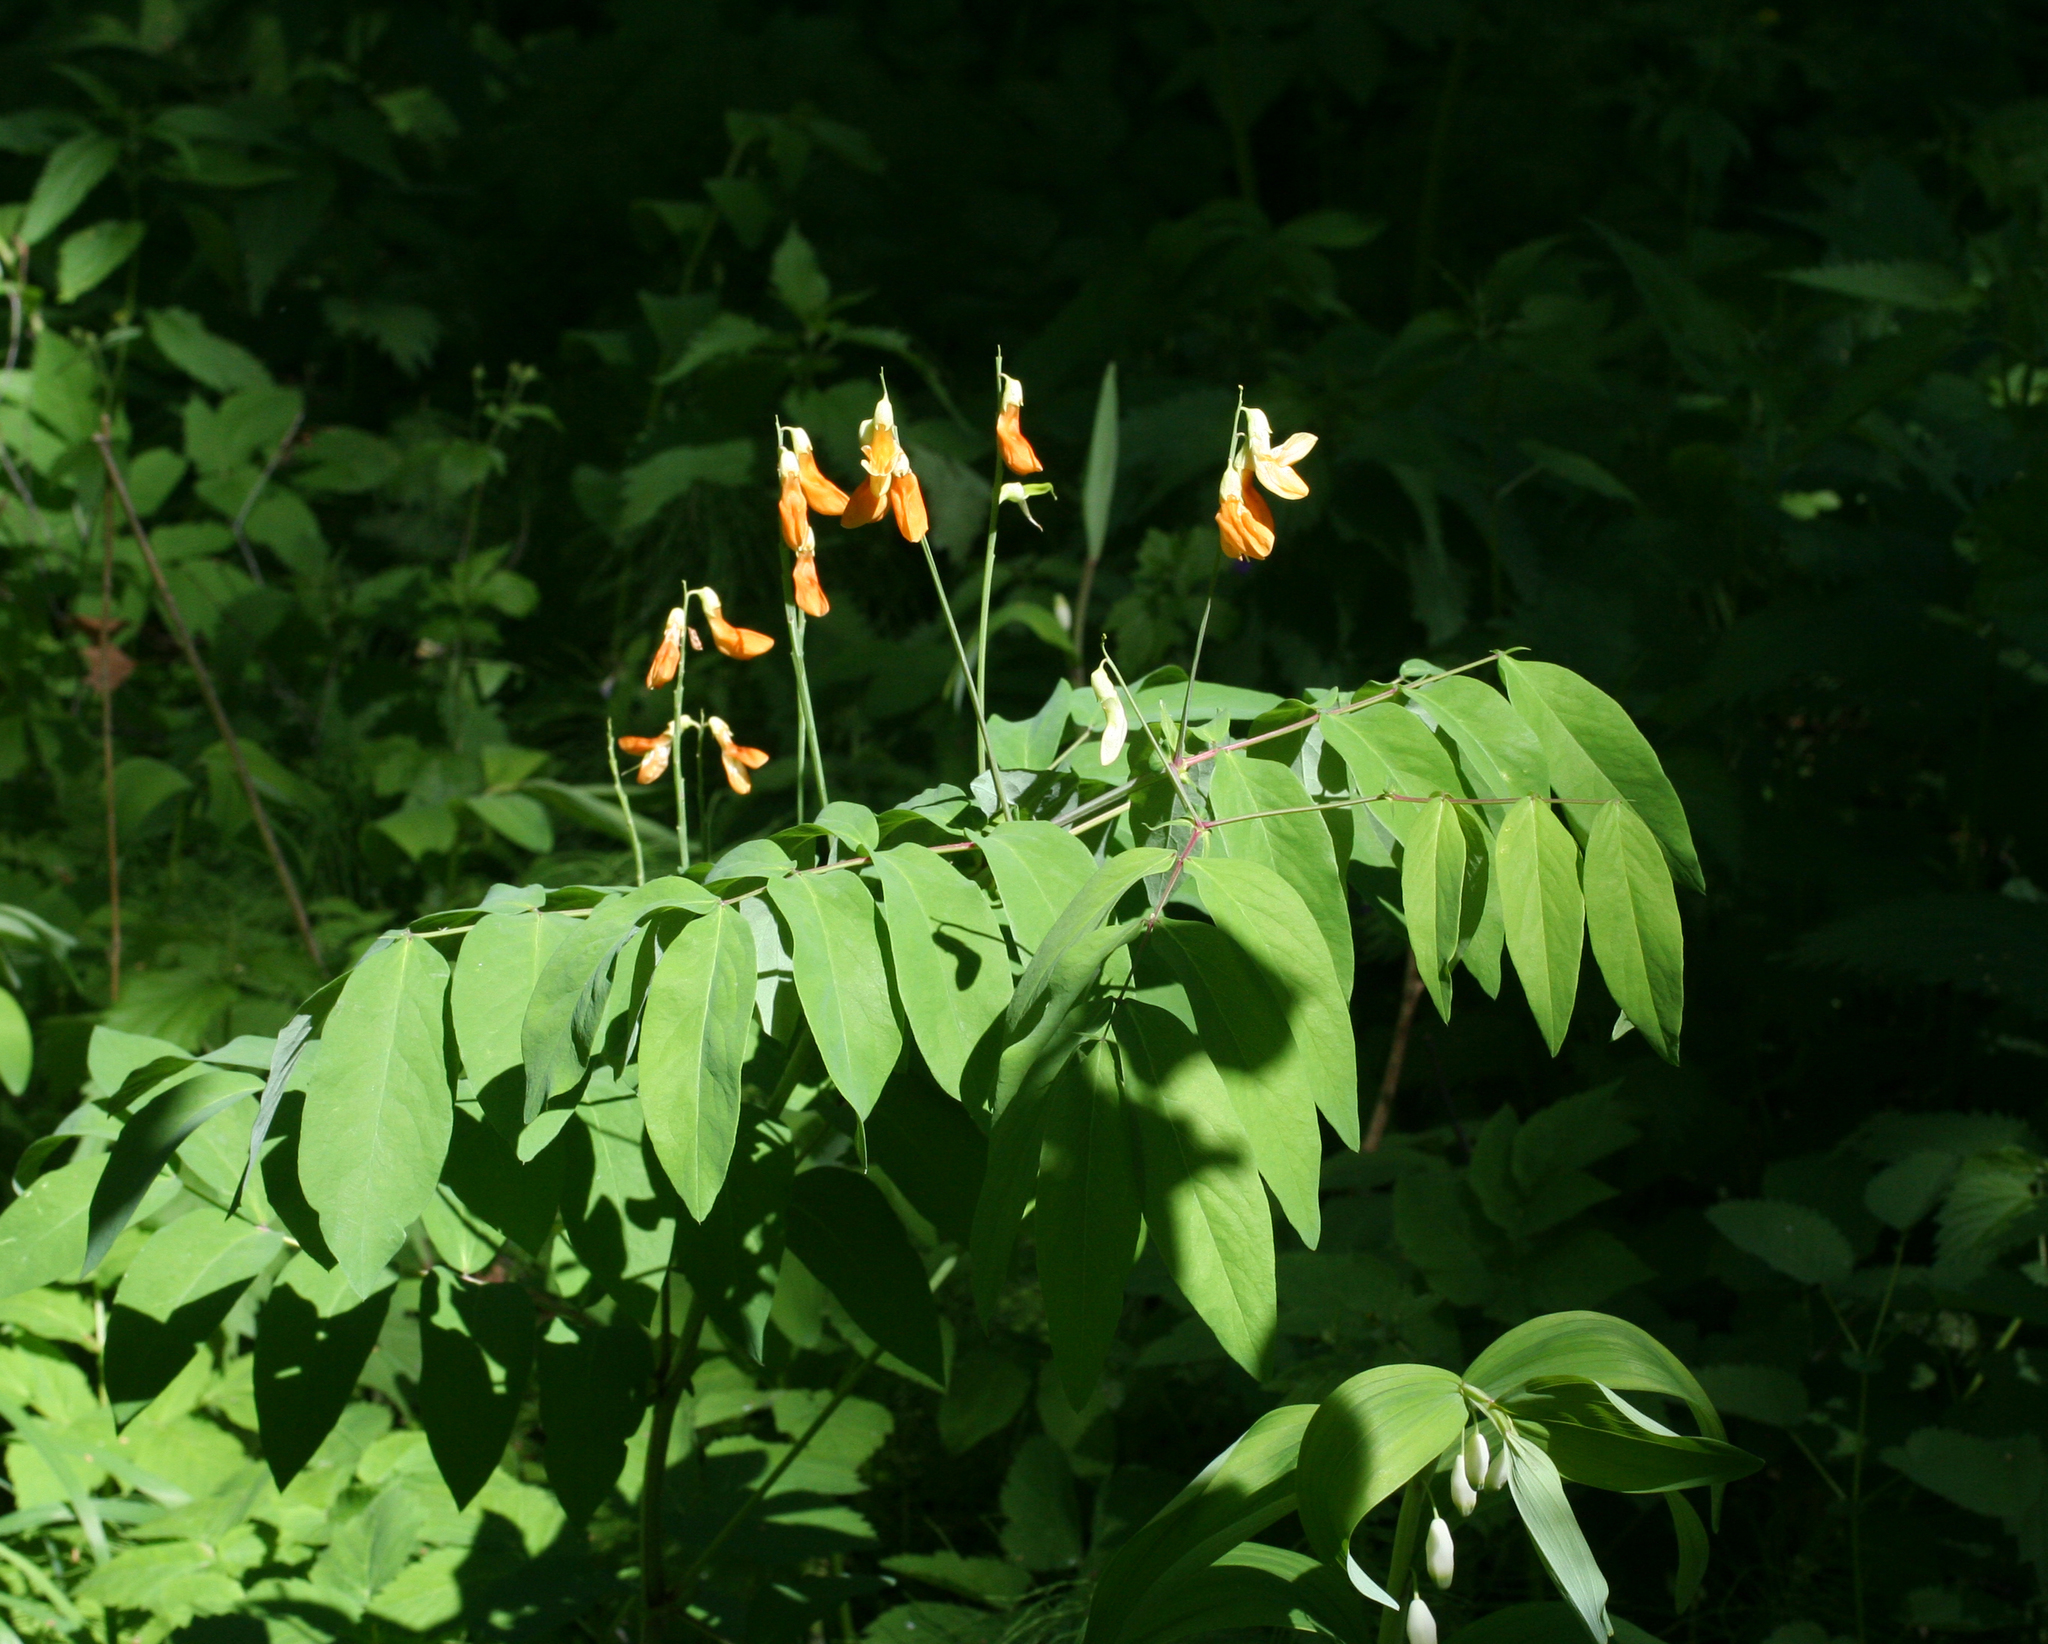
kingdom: Plantae
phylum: Tracheophyta
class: Magnoliopsida
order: Fabales
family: Fabaceae
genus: Lathyrus
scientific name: Lathyrus gmelinii
